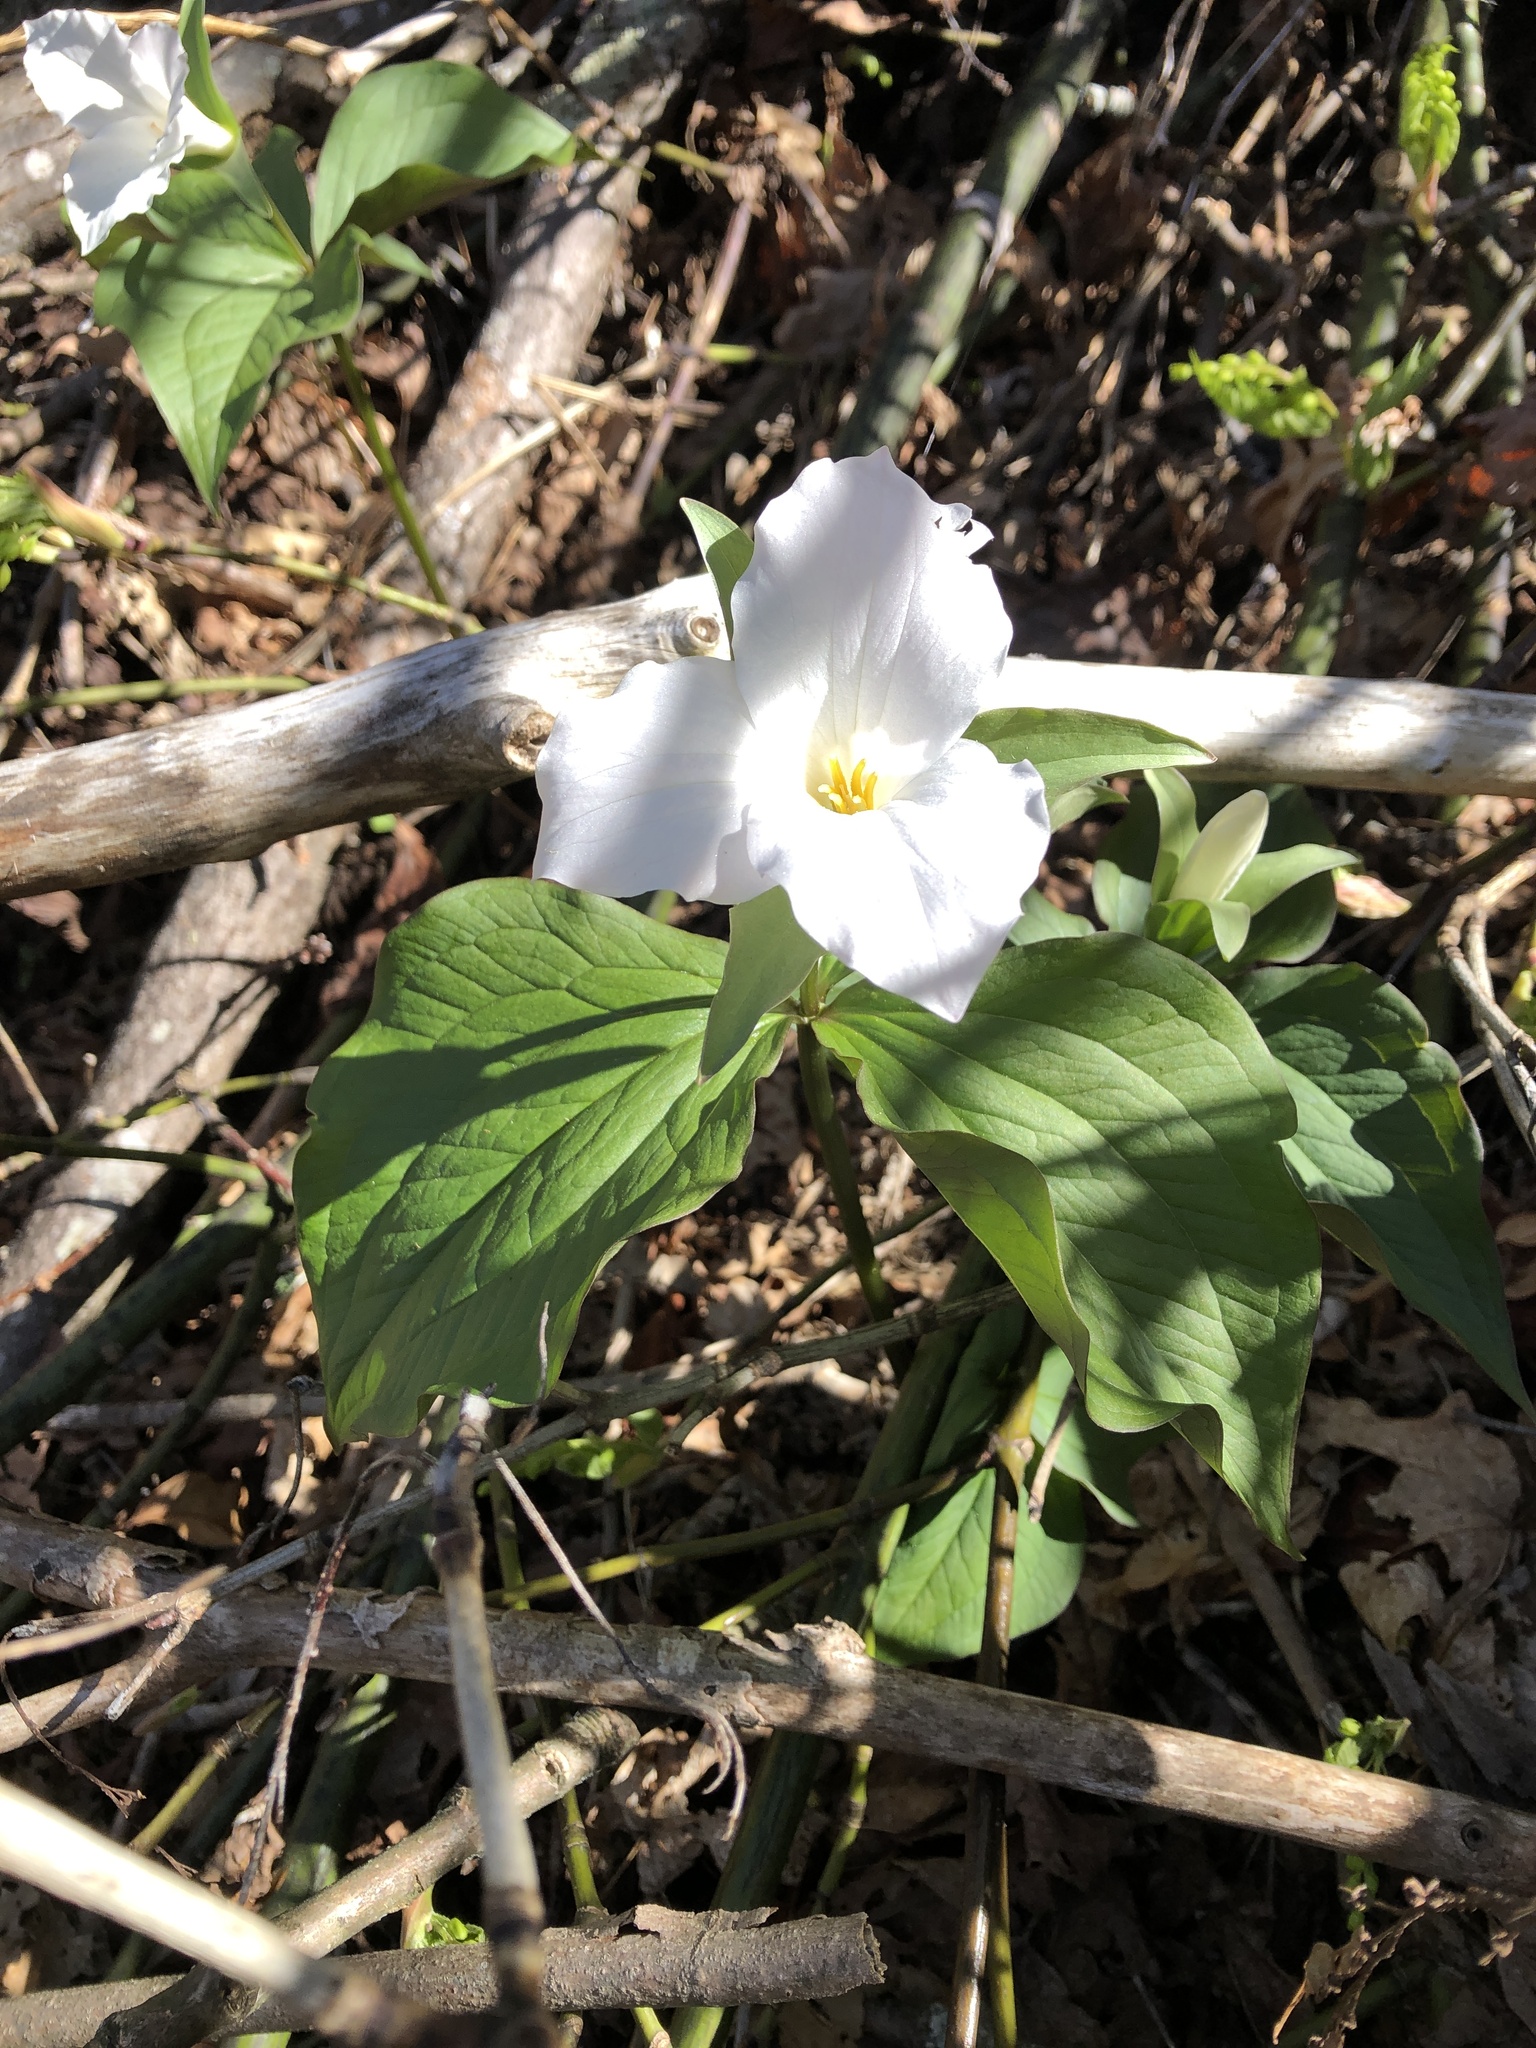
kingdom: Plantae
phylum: Tracheophyta
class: Liliopsida
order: Liliales
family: Melanthiaceae
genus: Trillium
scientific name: Trillium grandiflorum
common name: Great white trillium
